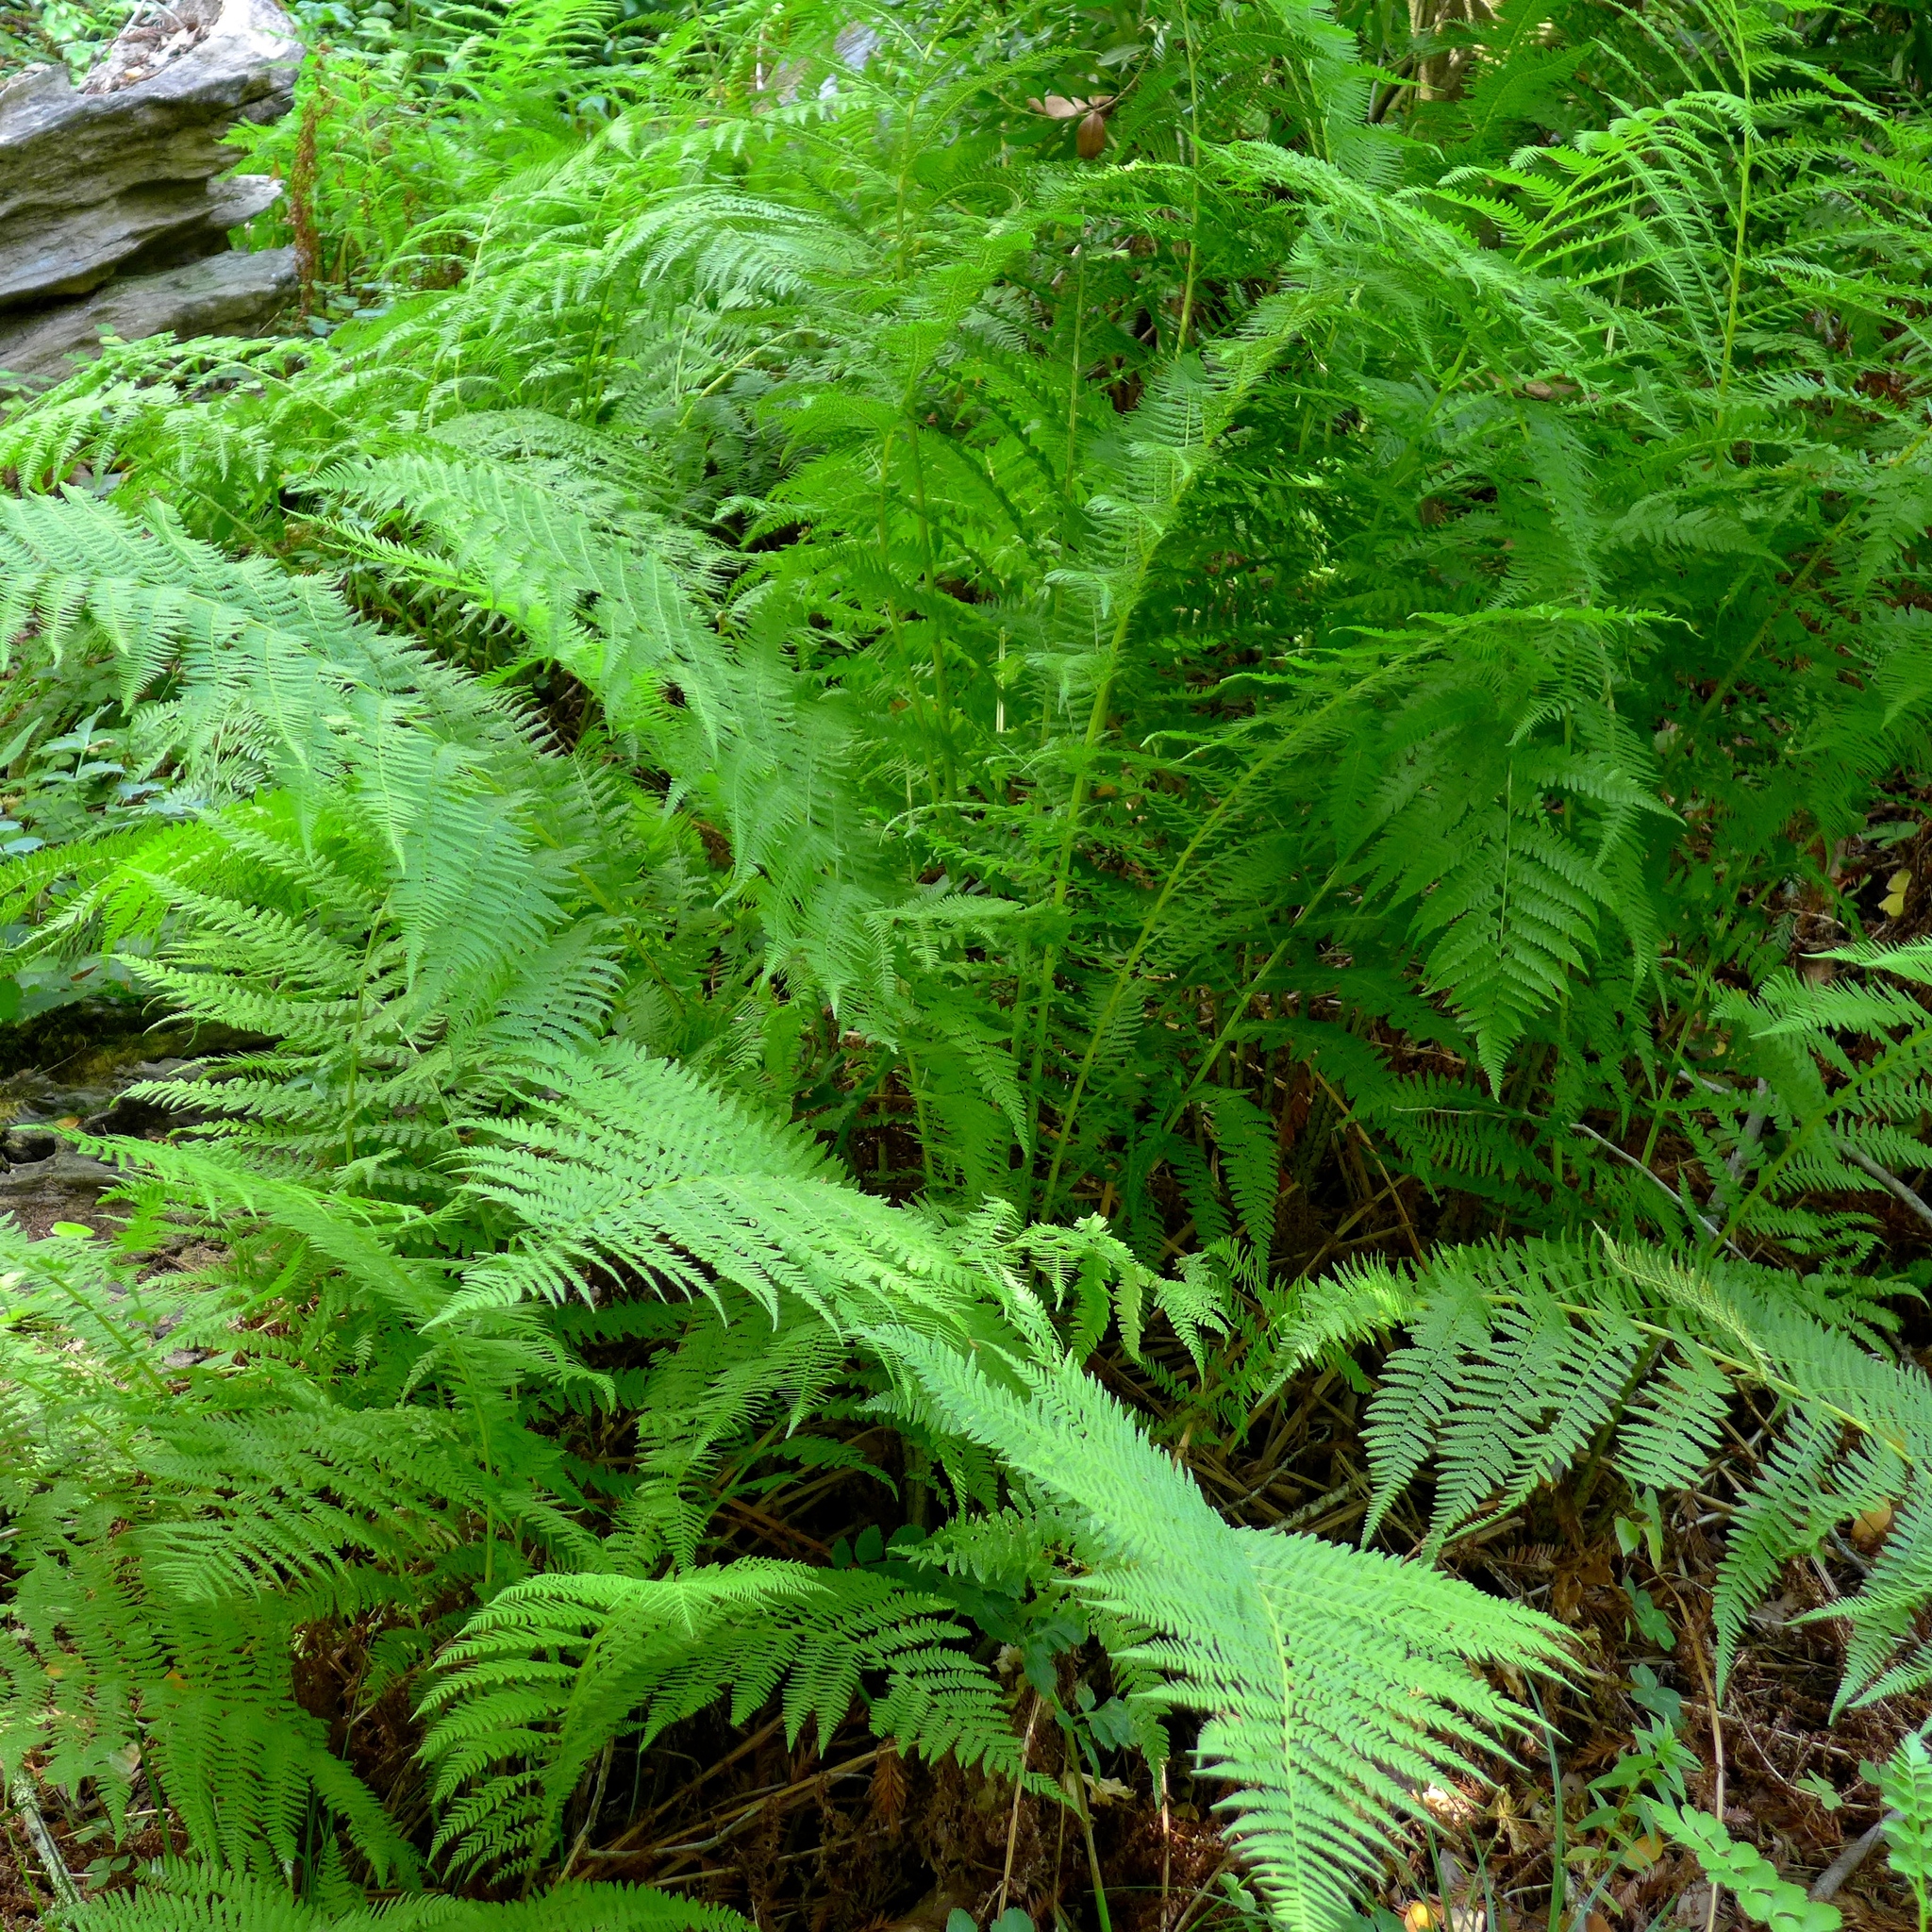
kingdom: Plantae
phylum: Tracheophyta
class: Polypodiopsida
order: Polypodiales
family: Athyriaceae
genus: Athyrium
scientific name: Athyrium filix-femina
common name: Lady fern
